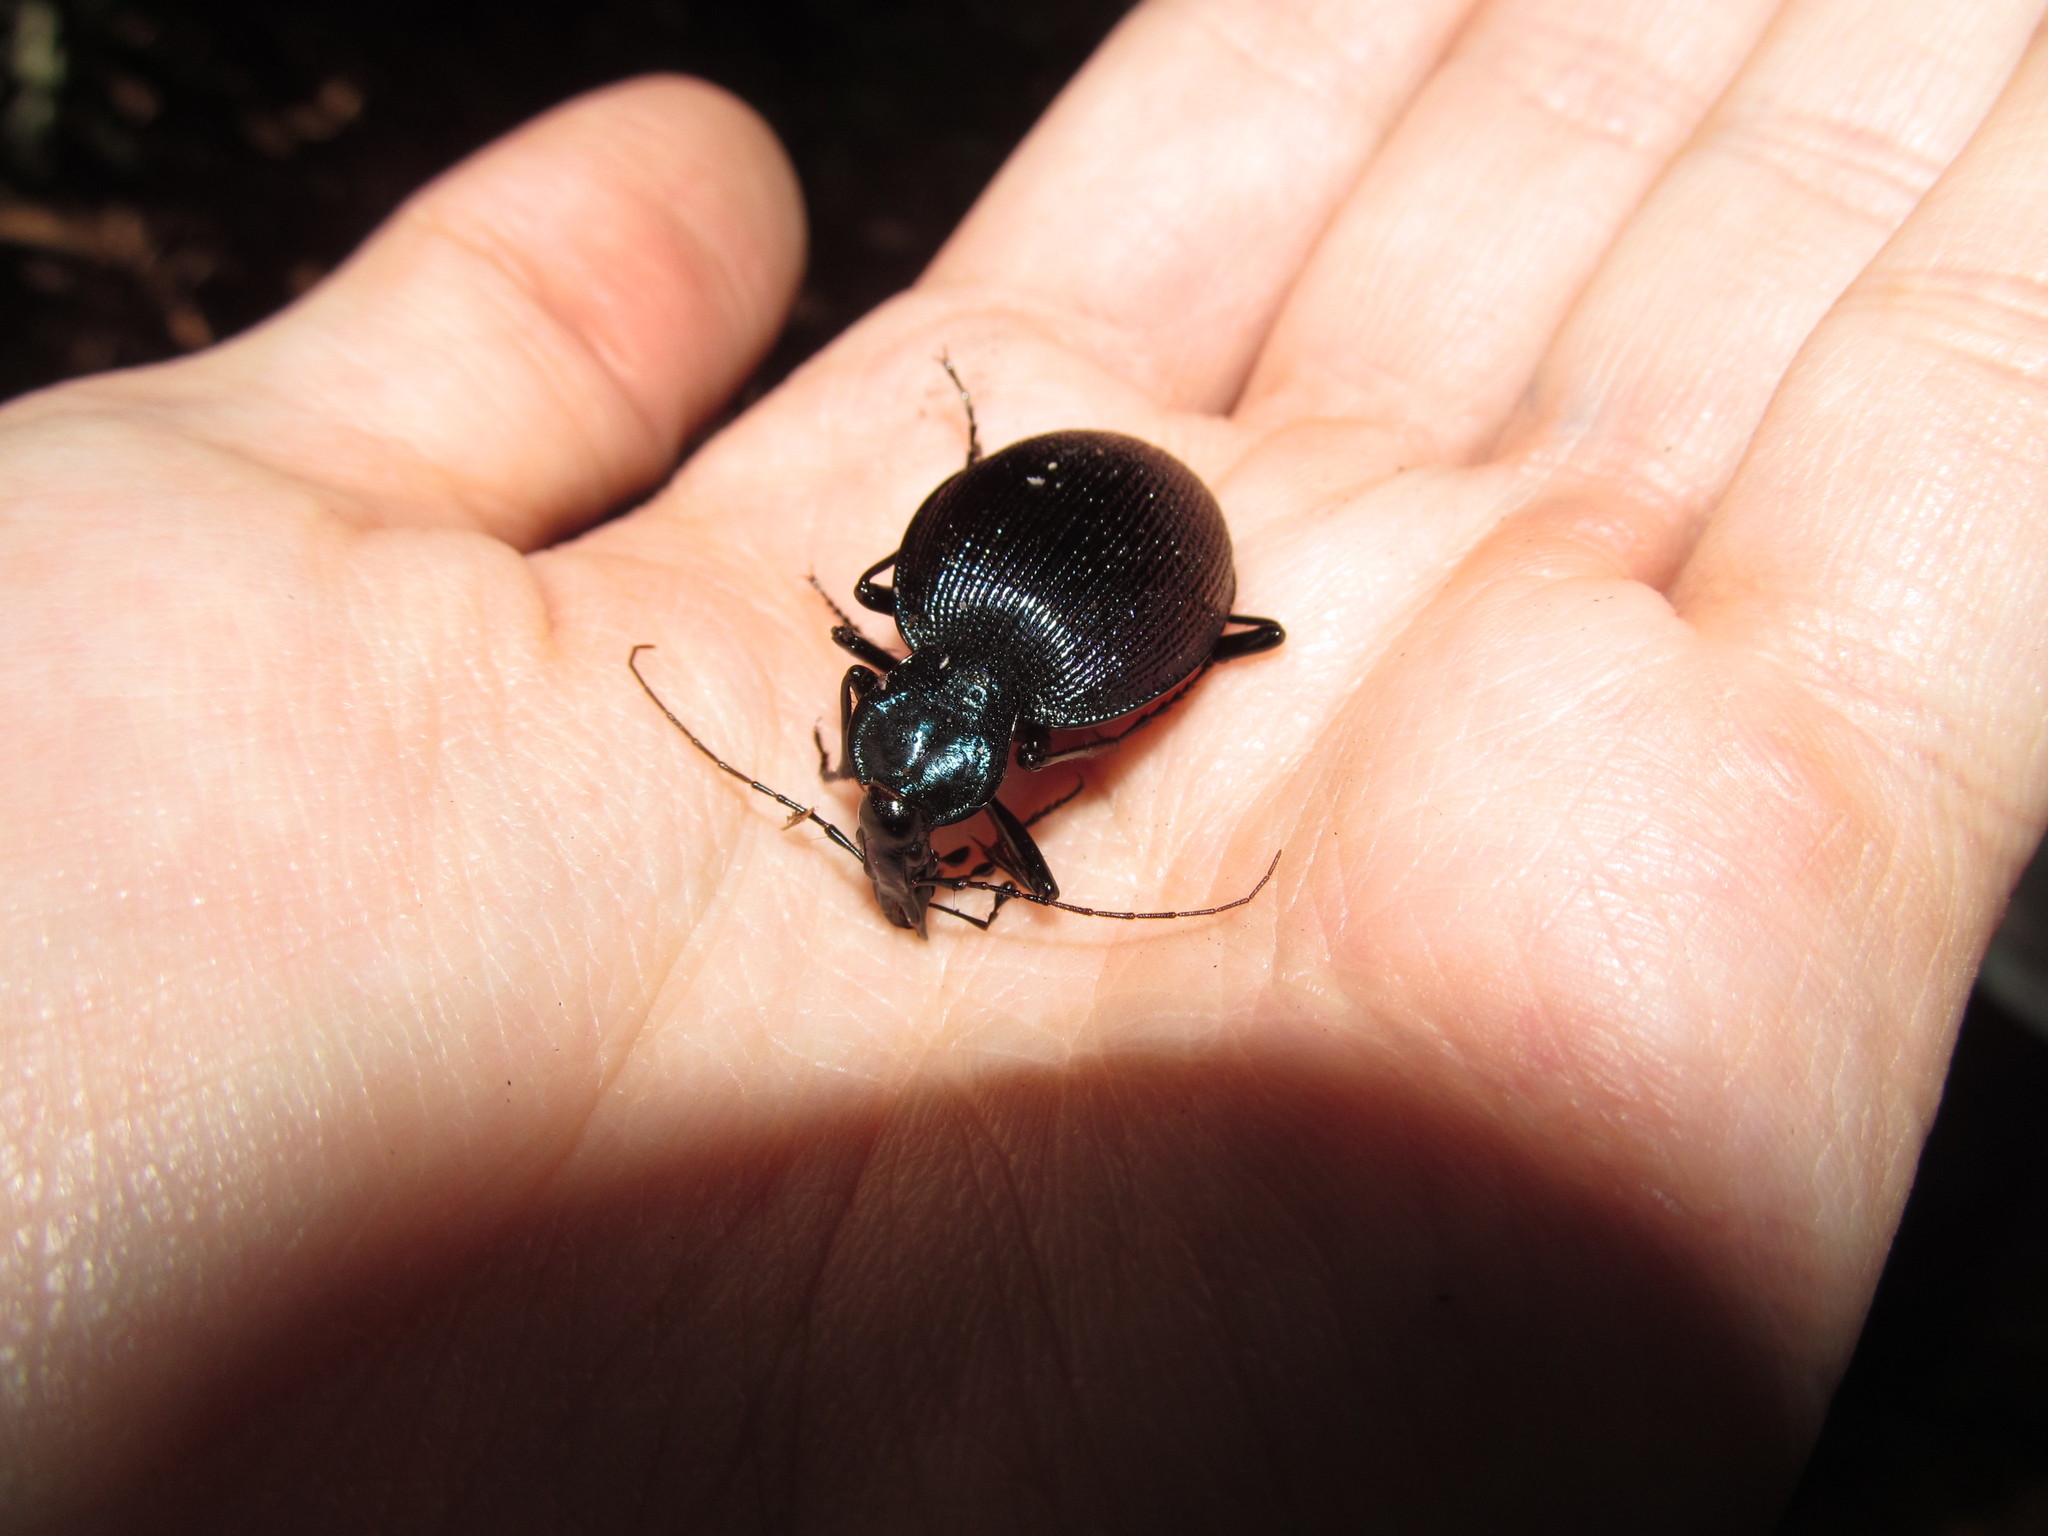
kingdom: Animalia
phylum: Arthropoda
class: Insecta
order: Coleoptera
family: Carabidae
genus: Scaphinotus
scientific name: Scaphinotus viduus
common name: Bereft snail-eating beetle
